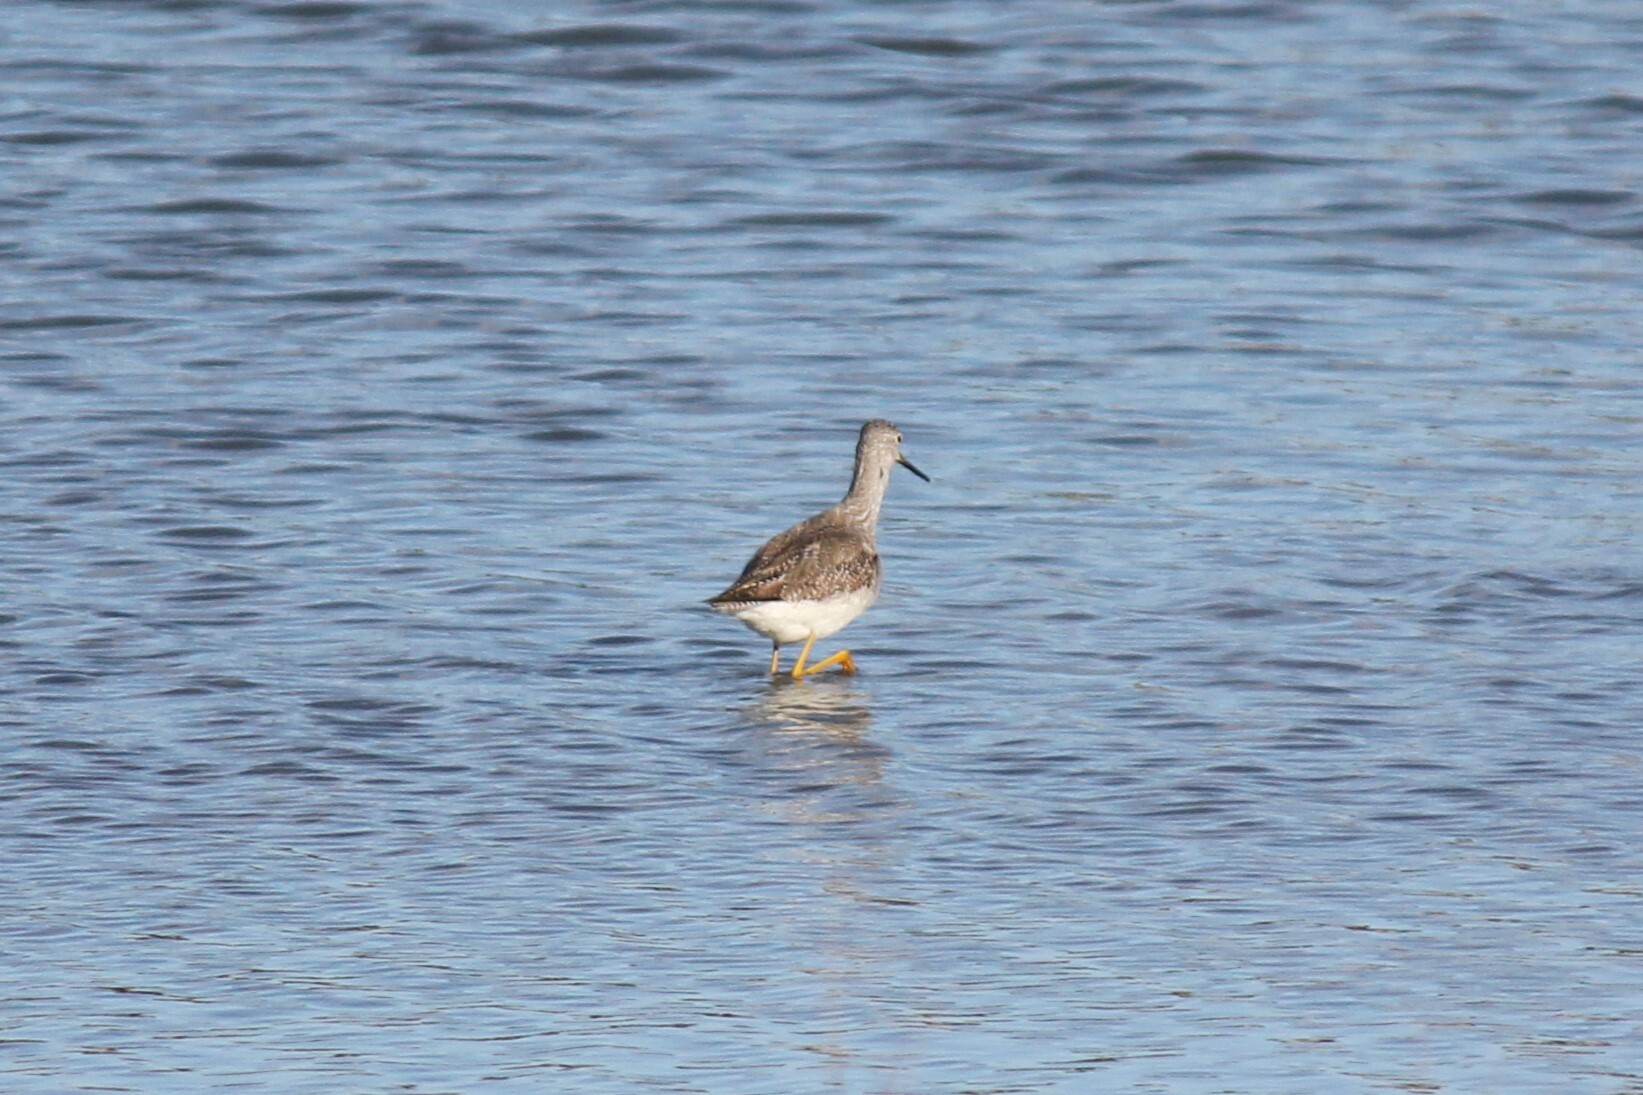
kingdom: Animalia
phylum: Chordata
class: Aves
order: Charadriiformes
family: Scolopacidae
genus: Tringa
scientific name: Tringa melanoleuca
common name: Greater yellowlegs
